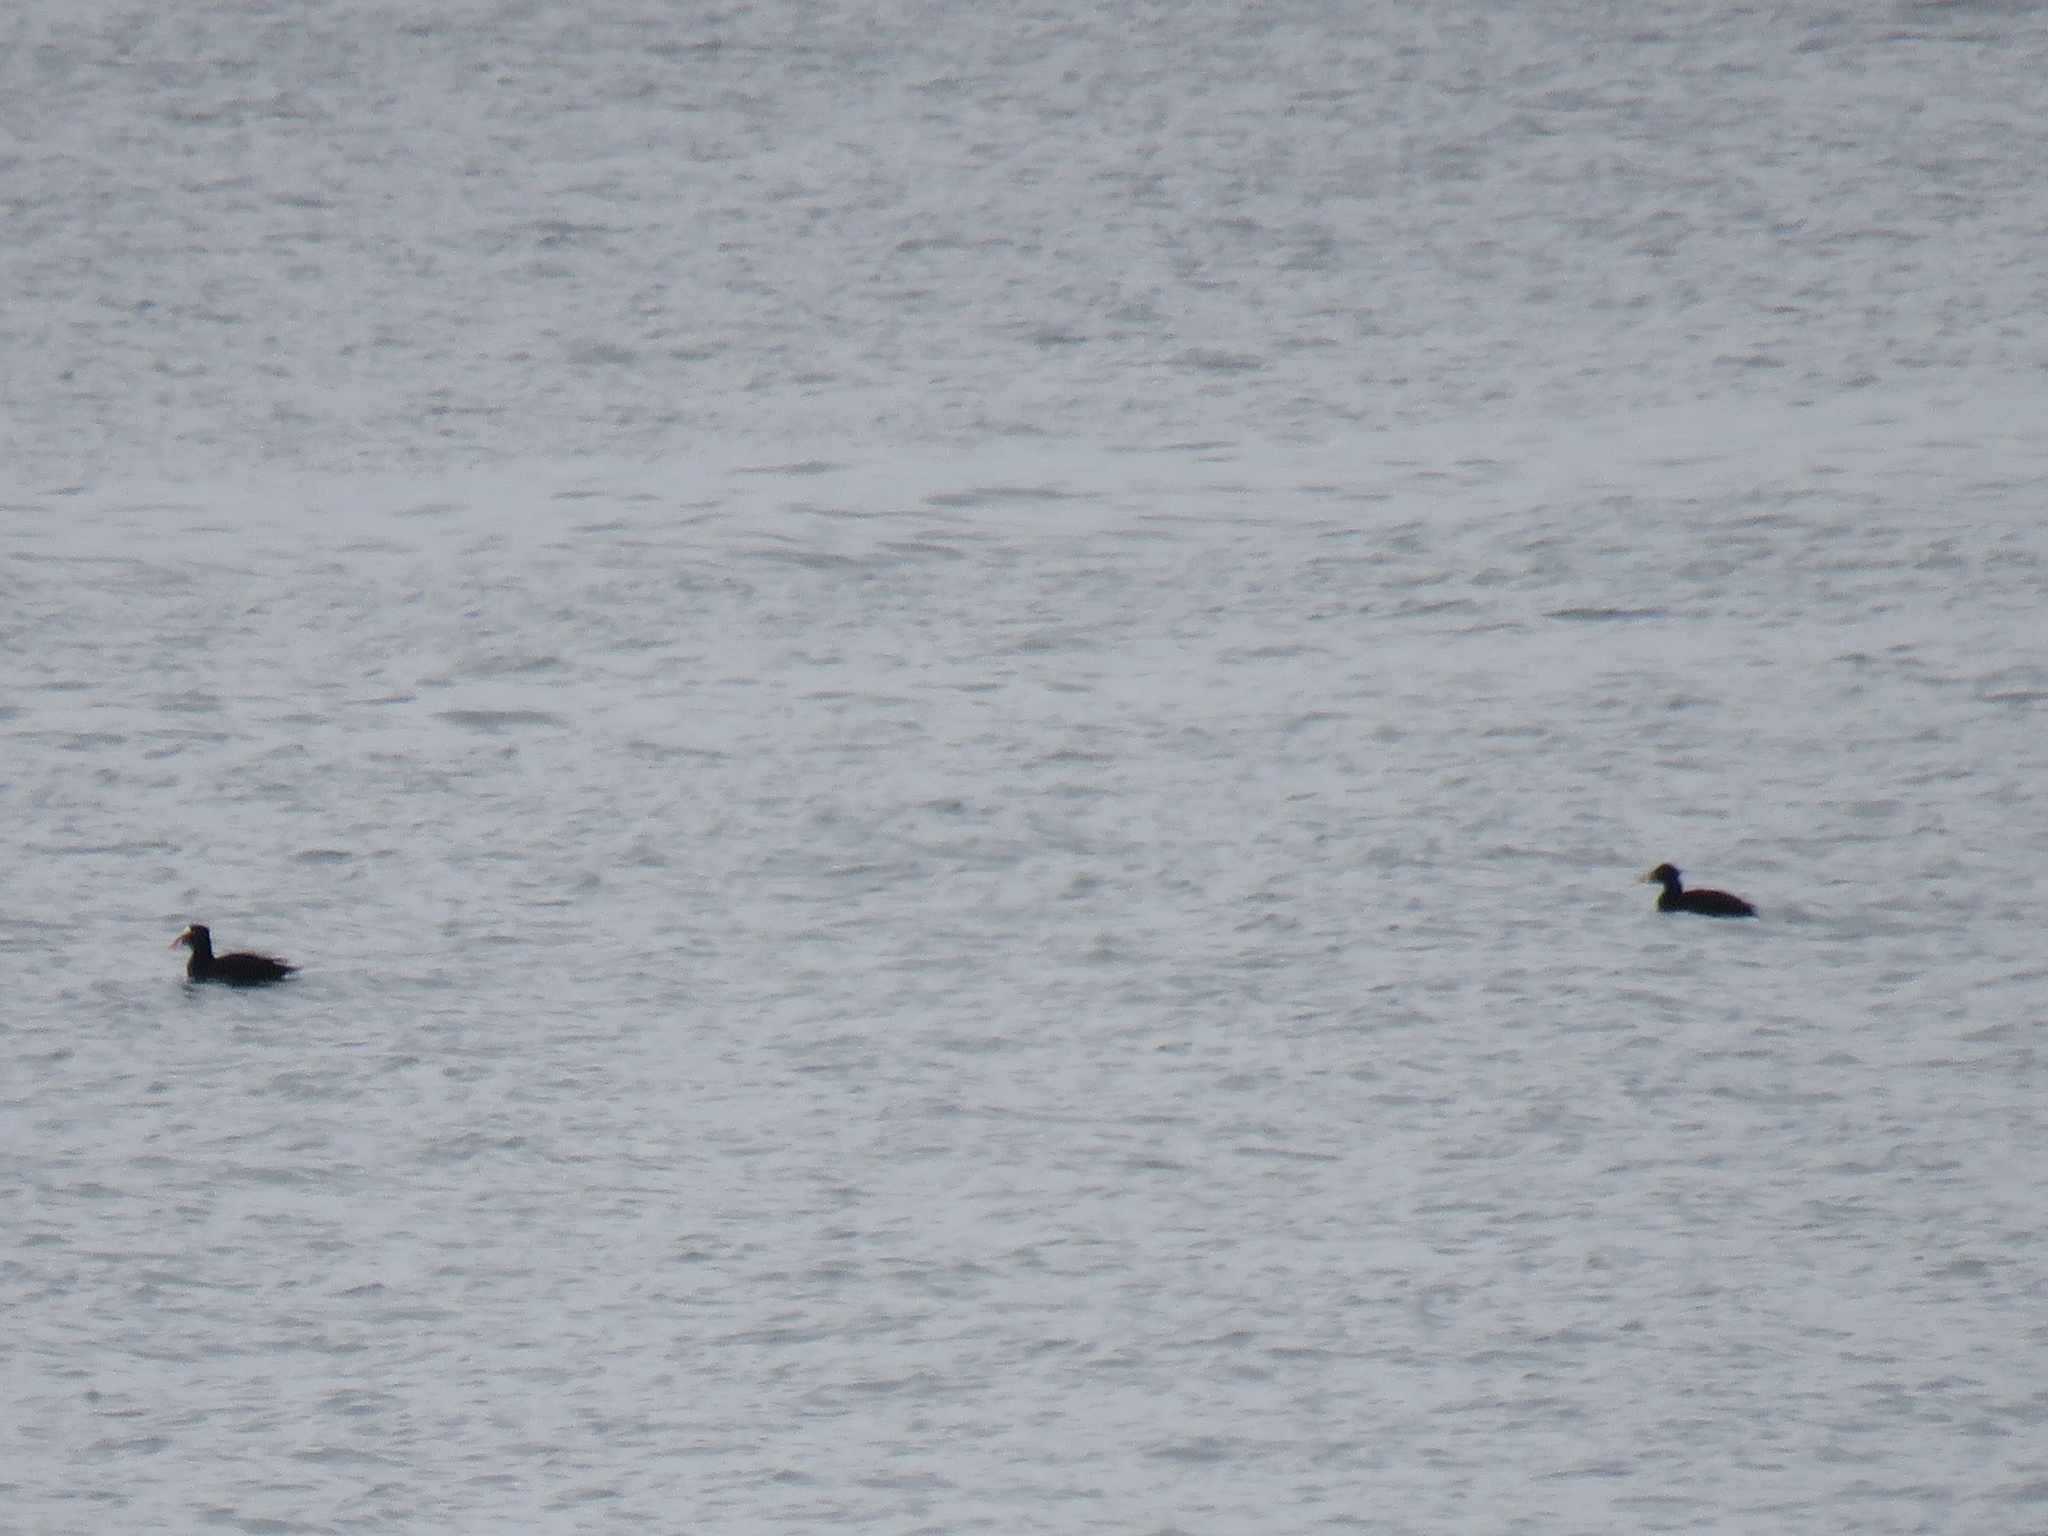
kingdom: Animalia
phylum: Chordata
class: Aves
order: Anseriformes
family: Anatidae
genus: Melanitta
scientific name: Melanitta perspicillata
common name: Surf scoter
